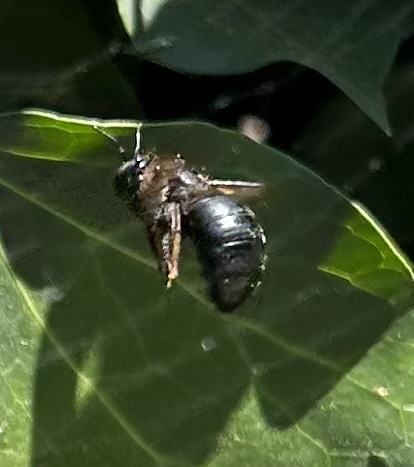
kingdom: Animalia
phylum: Arthropoda
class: Insecta
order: Hymenoptera
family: Apidae
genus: Xylocopa
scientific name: Xylocopa tabaniformis
